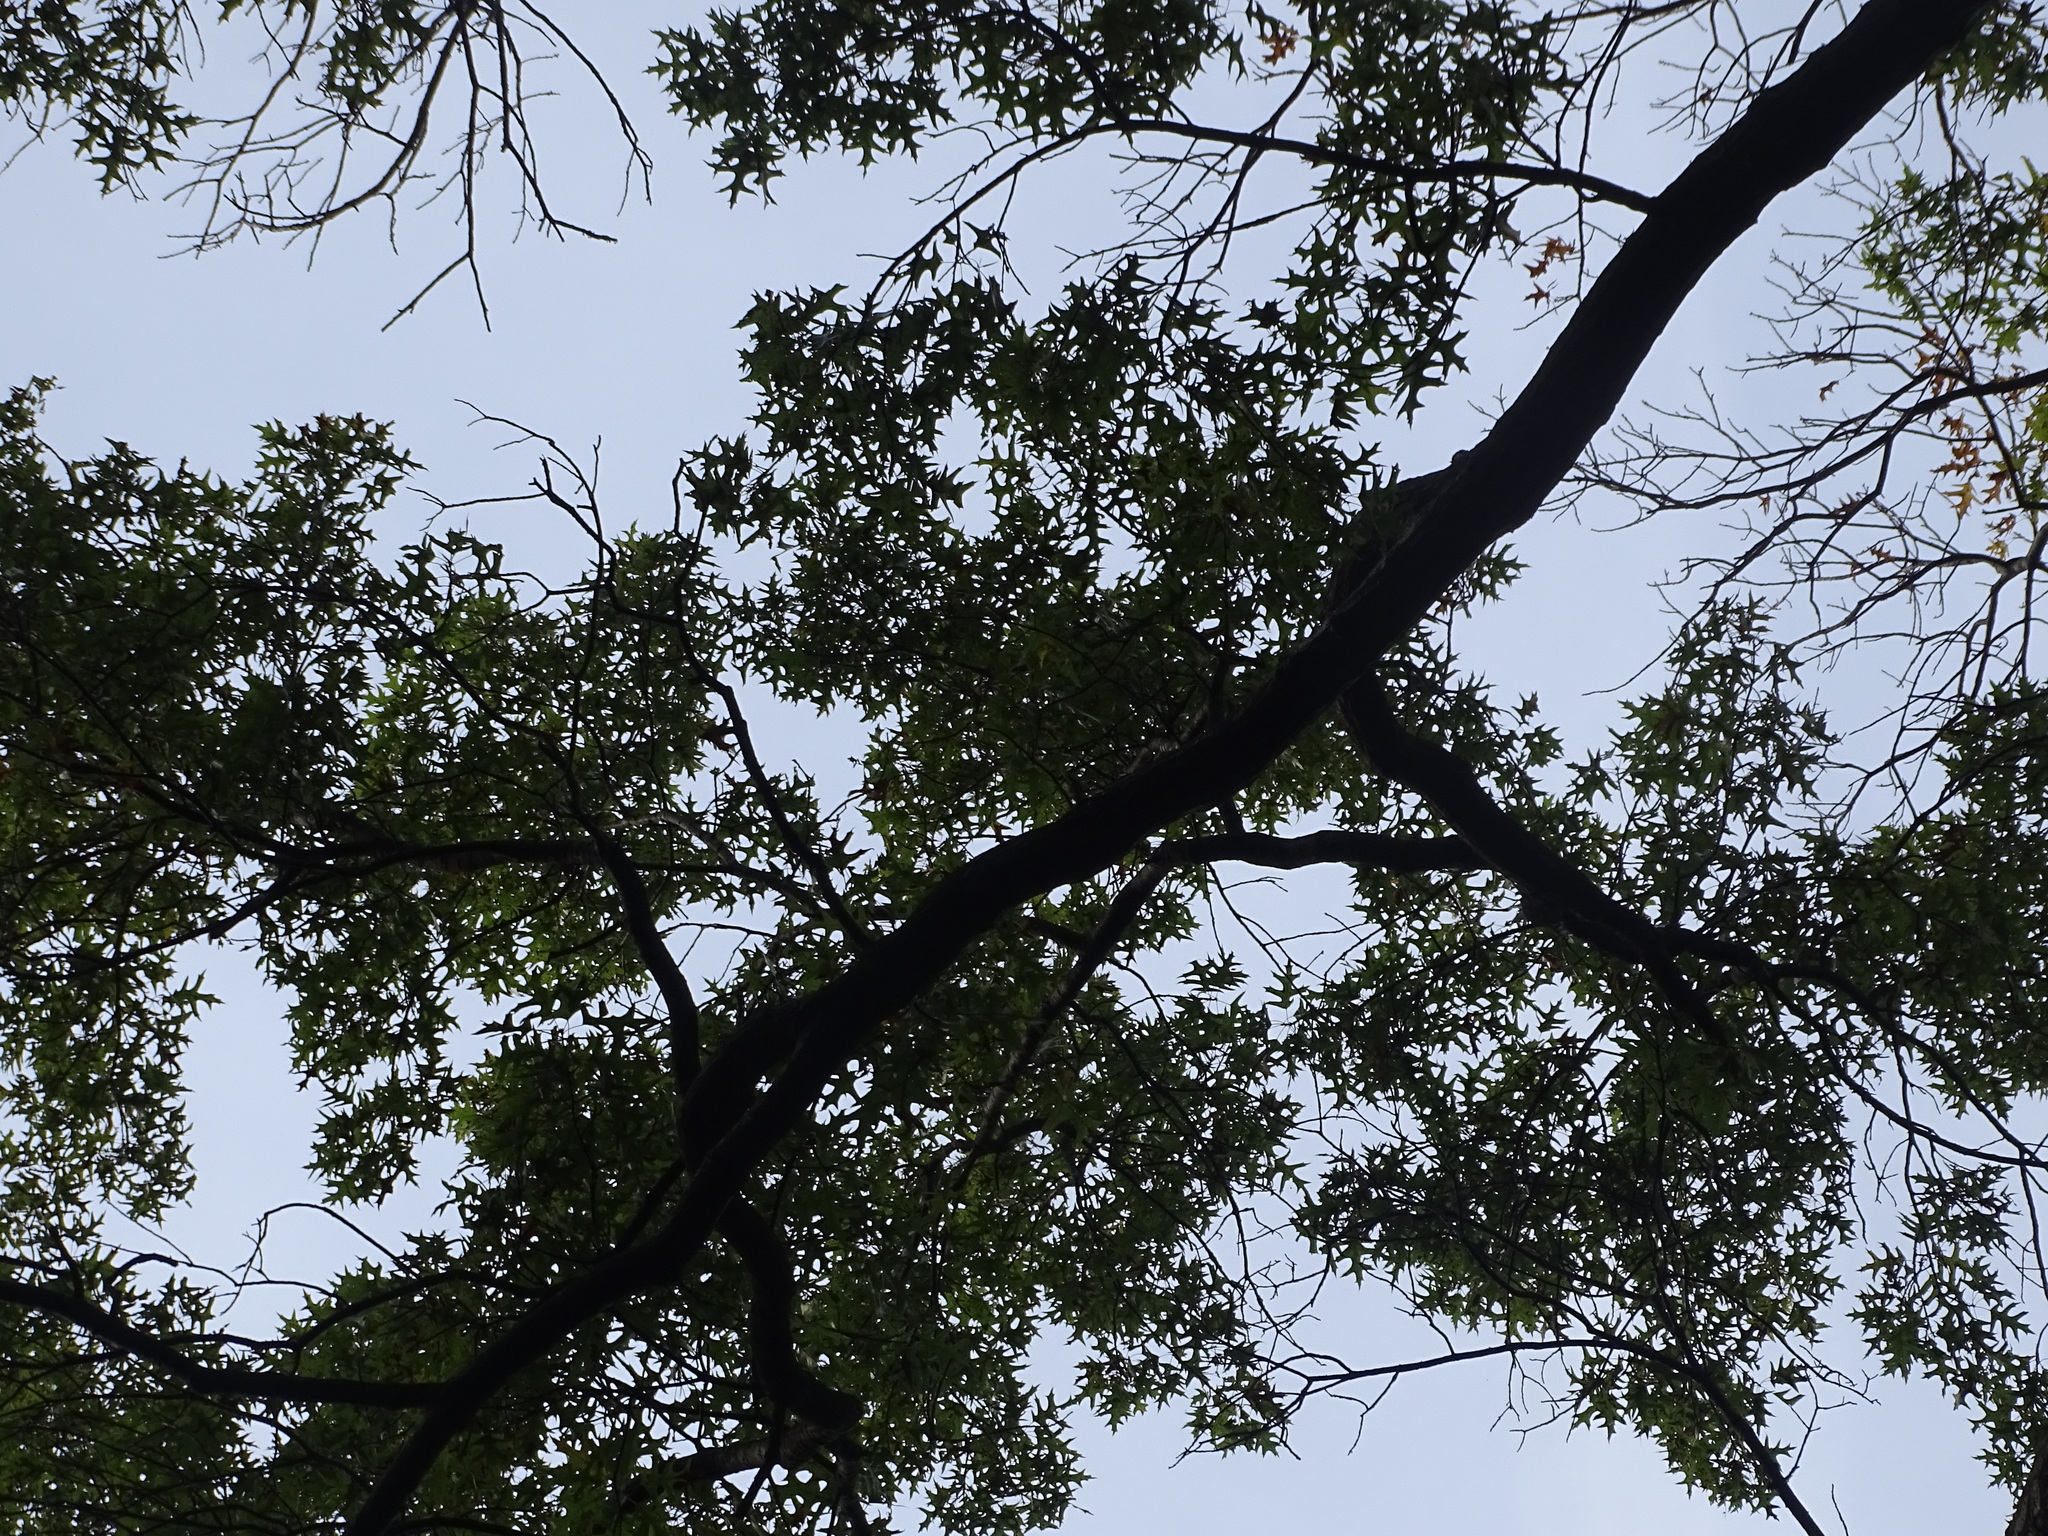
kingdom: Plantae
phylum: Tracheophyta
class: Magnoliopsida
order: Fagales
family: Fagaceae
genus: Quercus
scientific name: Quercus velutina
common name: Black oak
